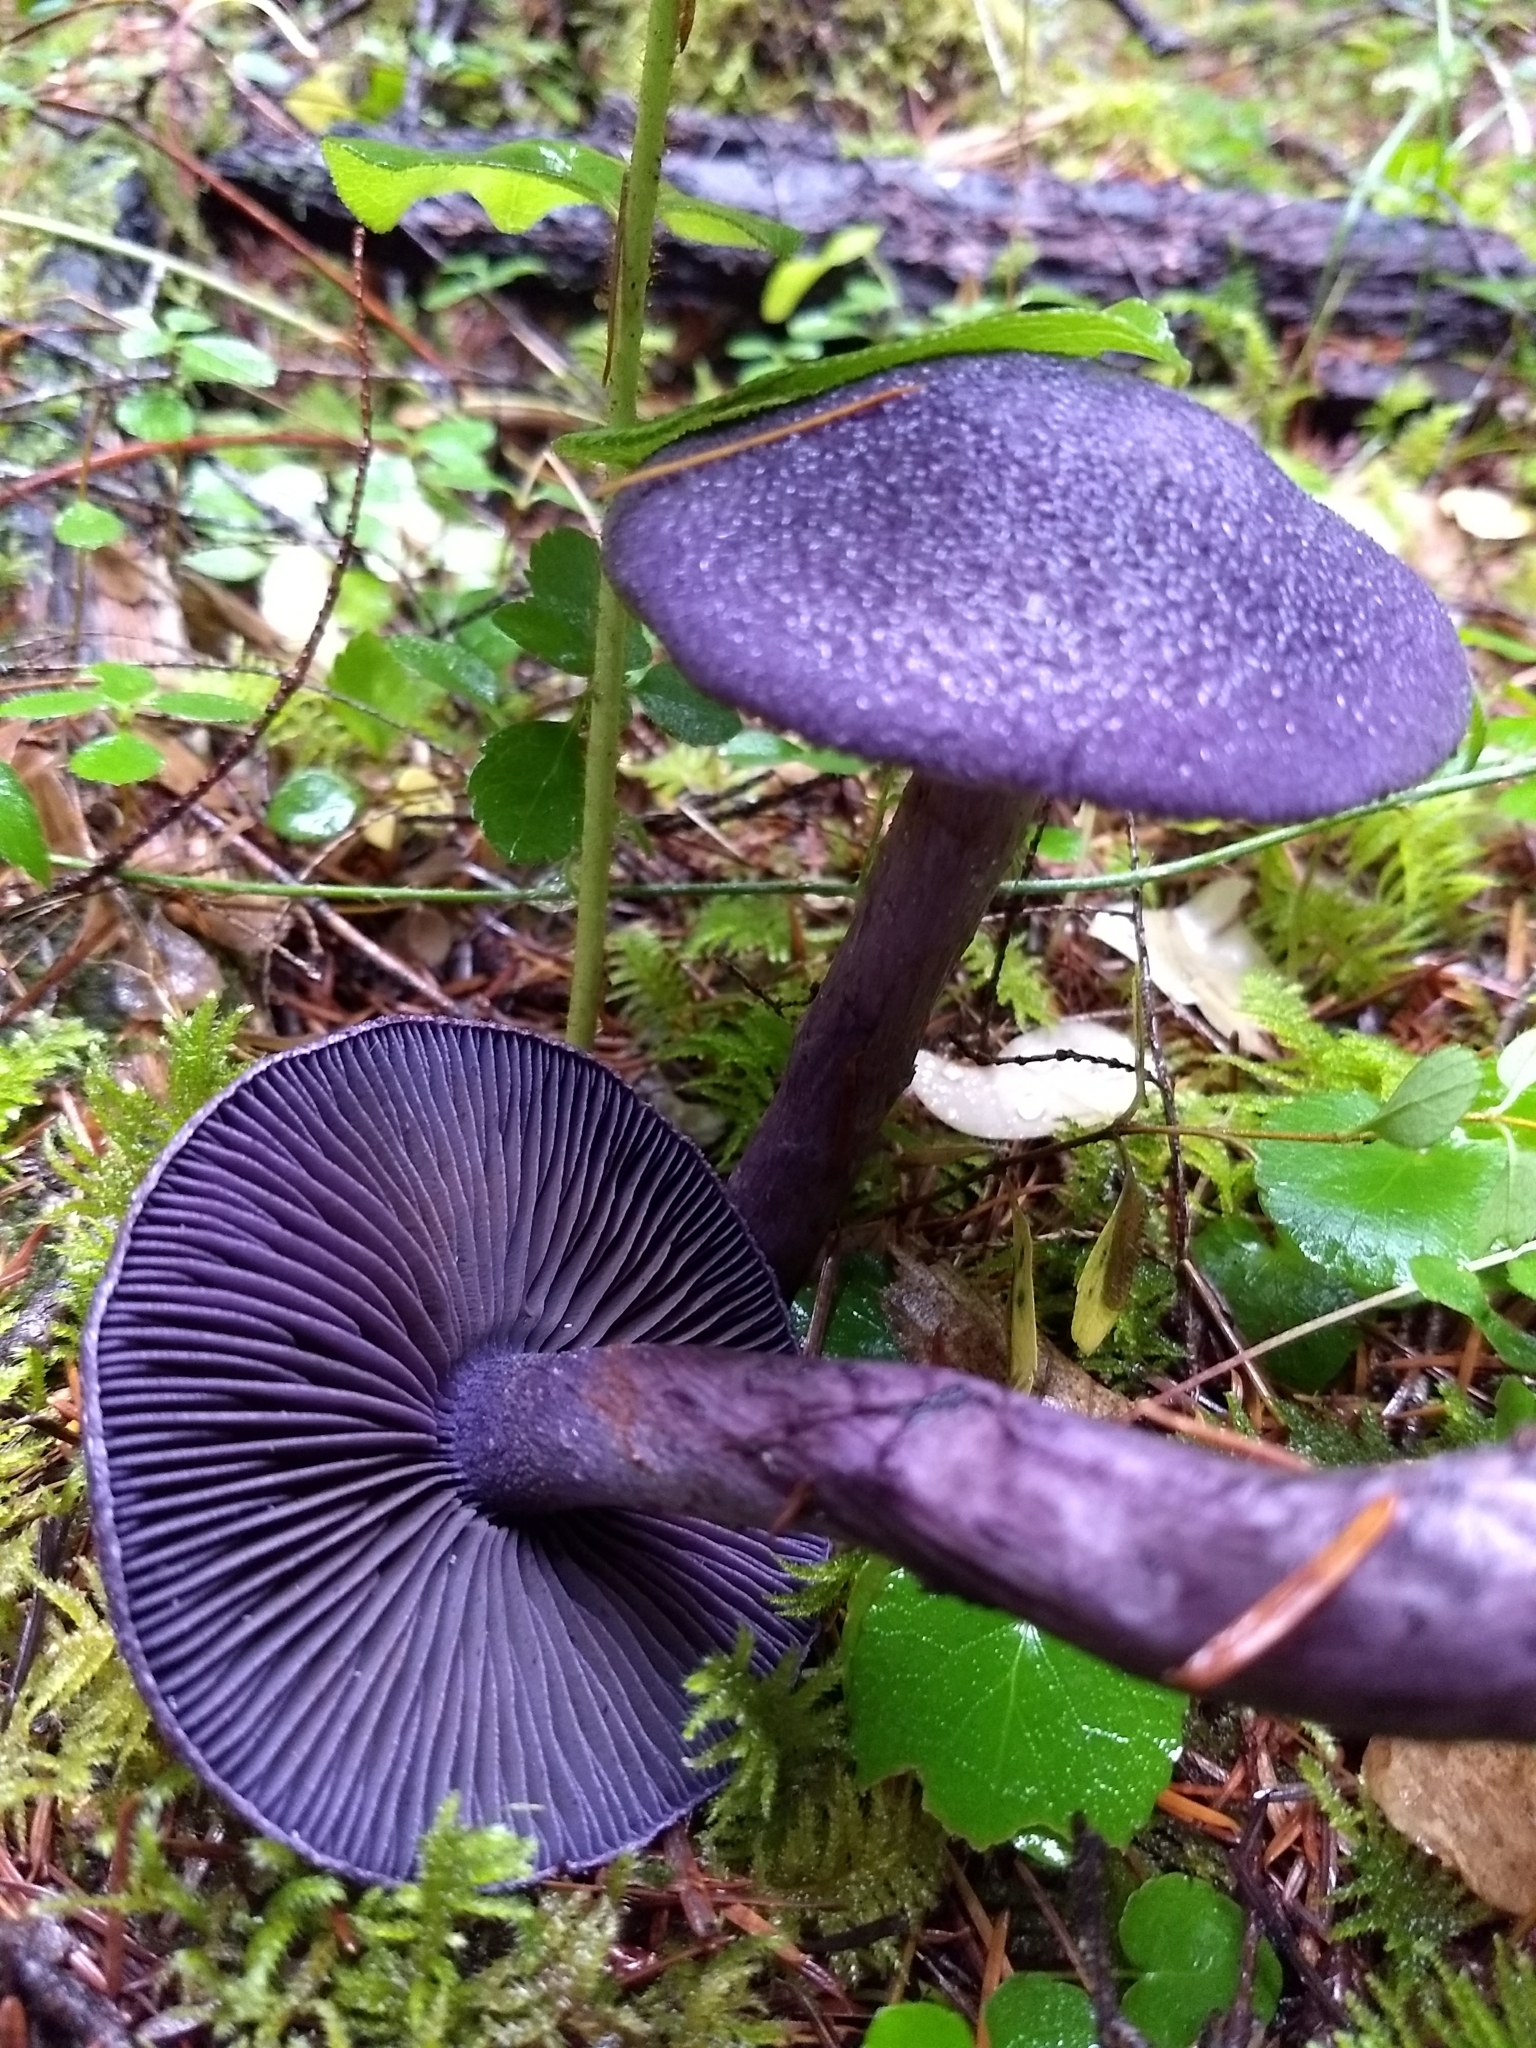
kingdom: Fungi
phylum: Basidiomycota
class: Agaricomycetes
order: Agaricales
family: Cortinariaceae
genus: Cortinarius
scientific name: Cortinarius violaceus
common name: Violet webcap
